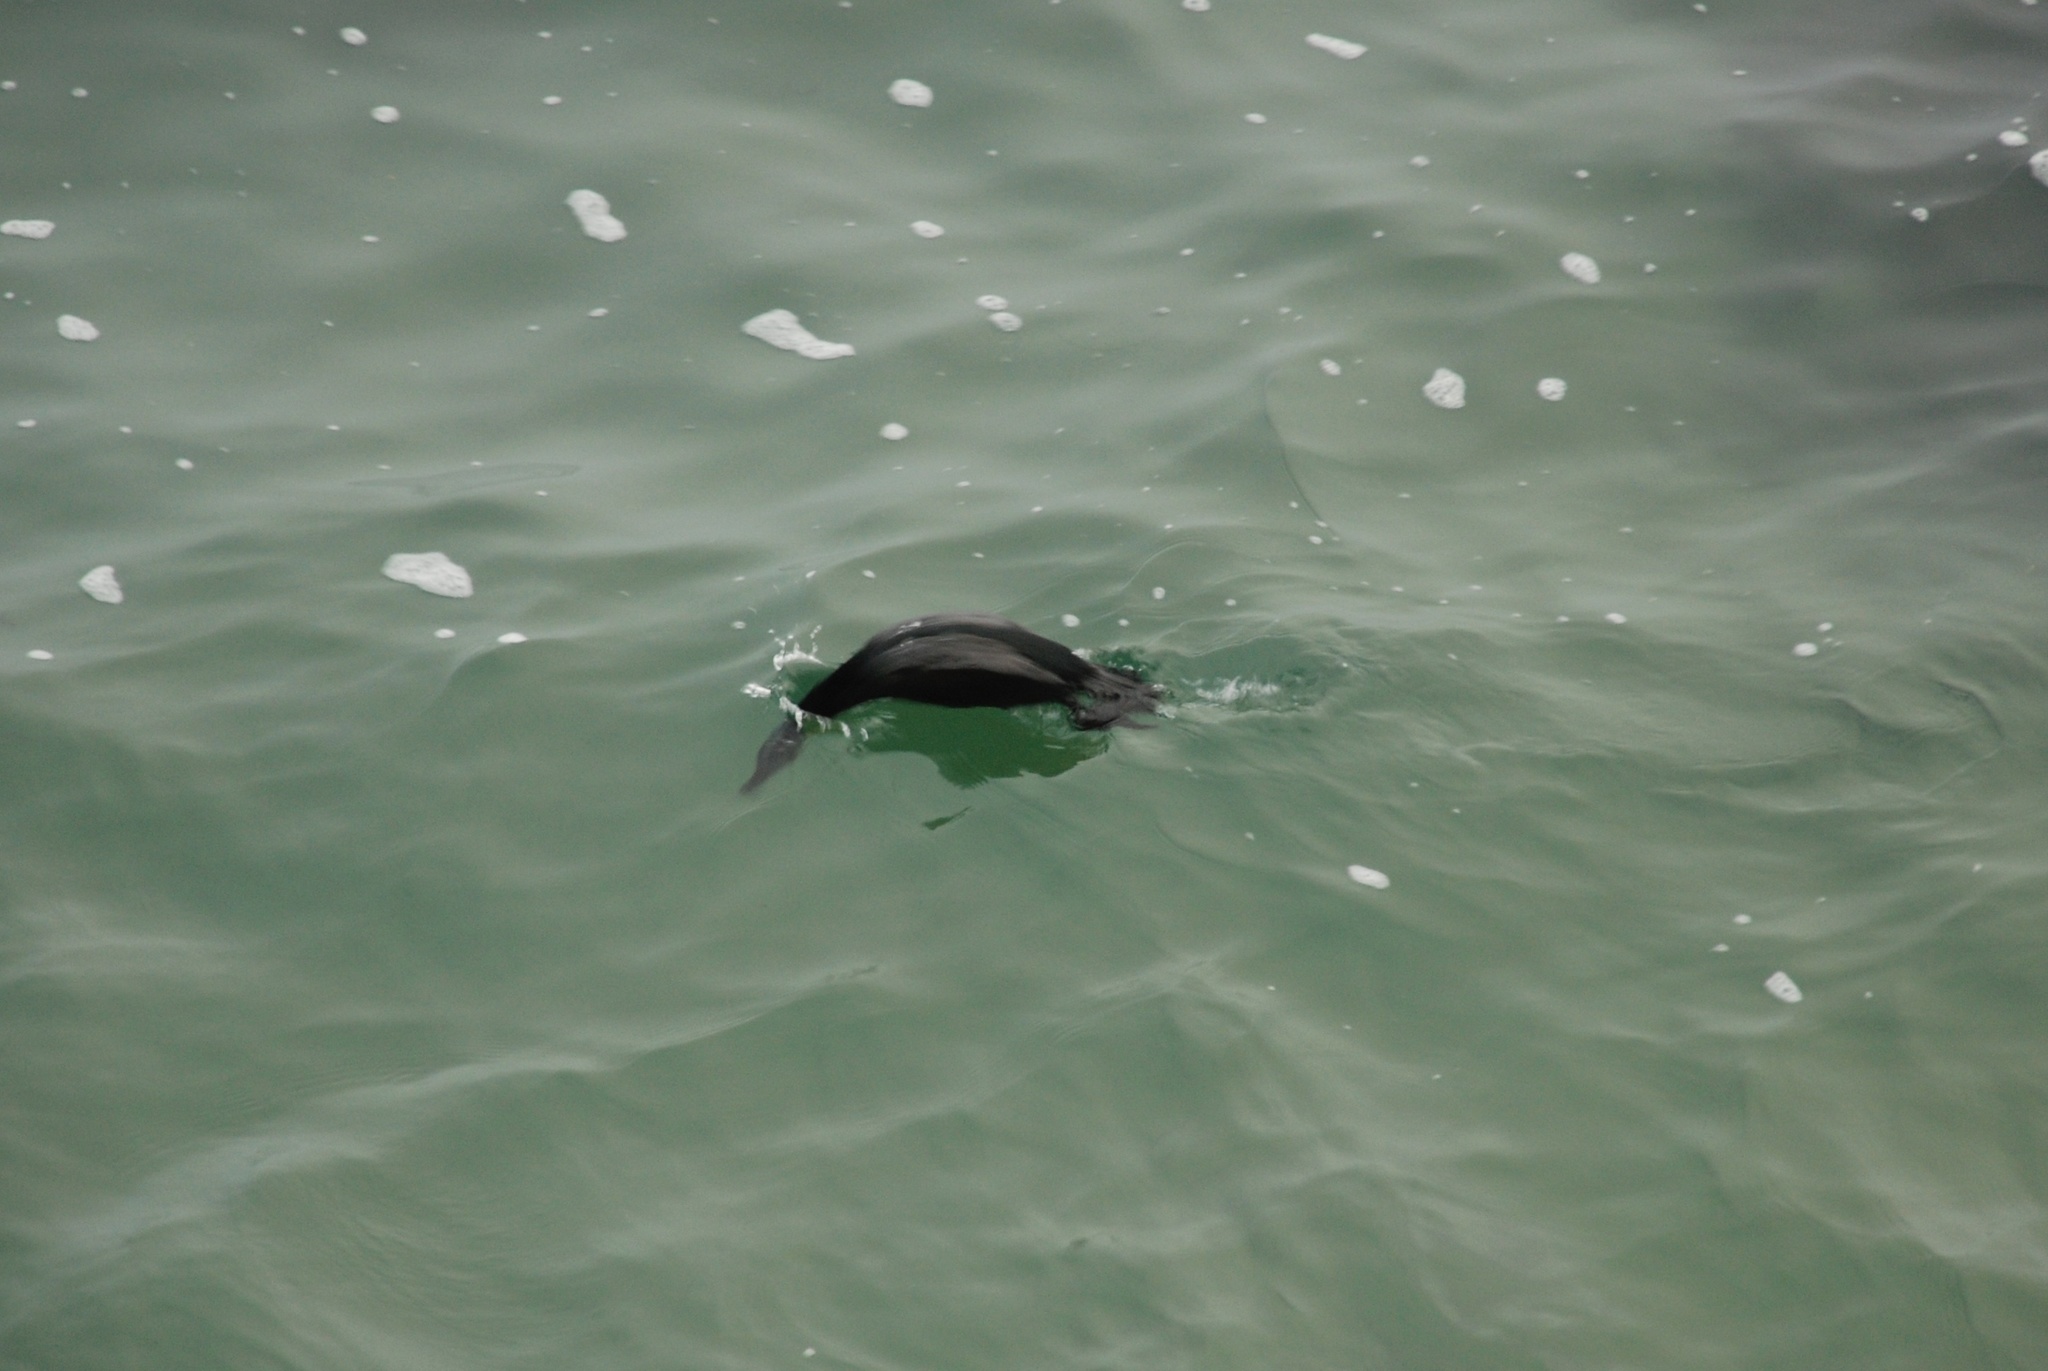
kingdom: Animalia
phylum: Chordata
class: Aves
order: Suliformes
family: Phalacrocoracidae
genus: Urile
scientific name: Urile penicillatus
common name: Brandt's cormorant
